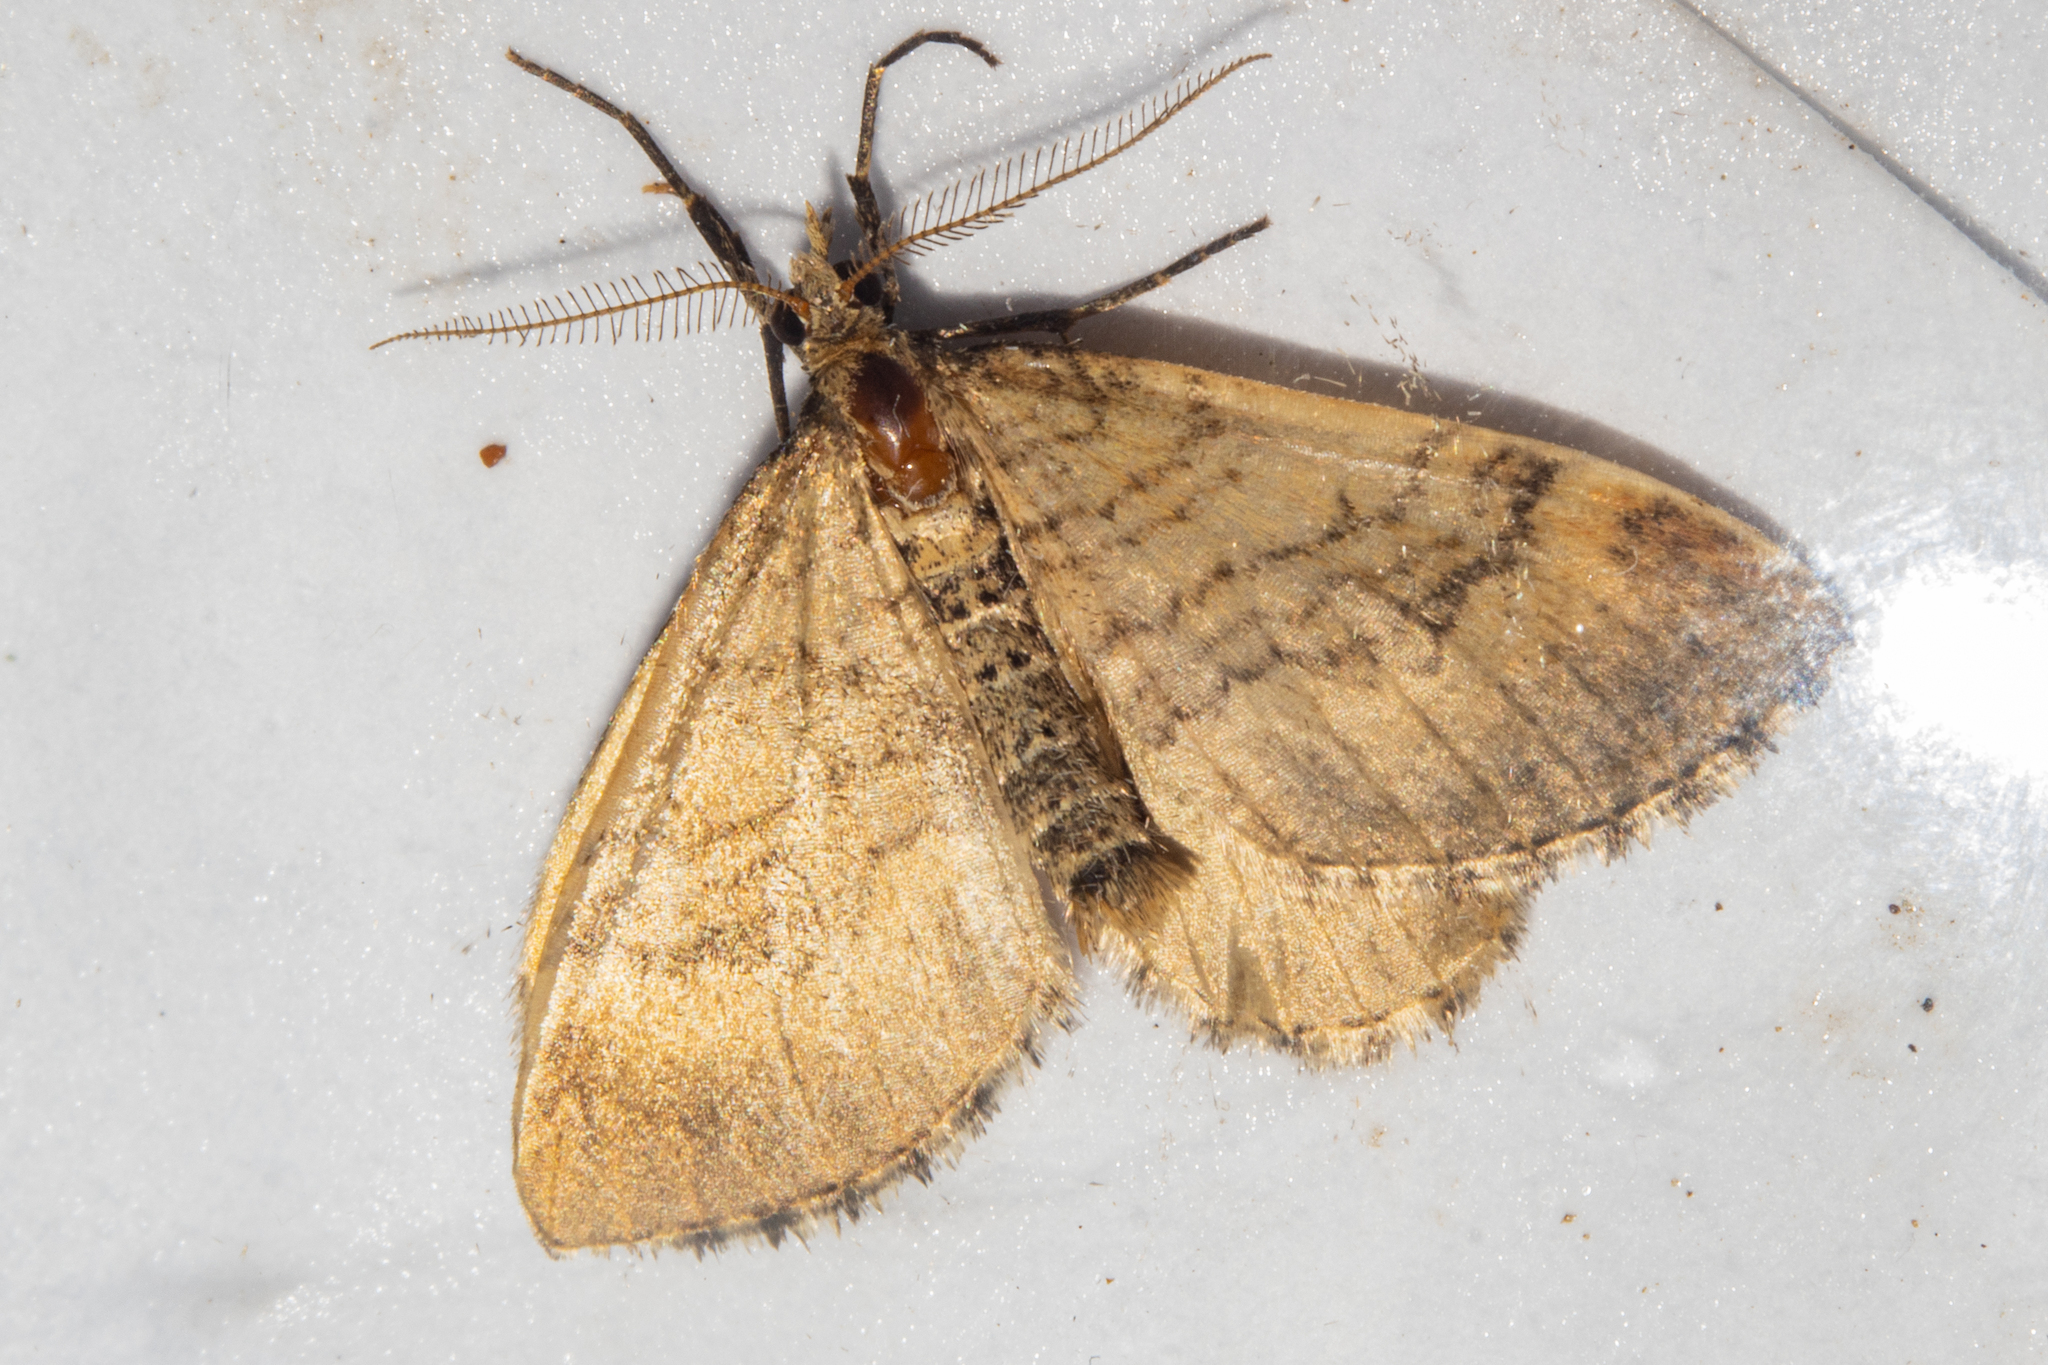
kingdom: Animalia
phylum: Arthropoda
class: Insecta
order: Lepidoptera
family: Geometridae
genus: Asaphodes
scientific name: Asaphodes aegrota
